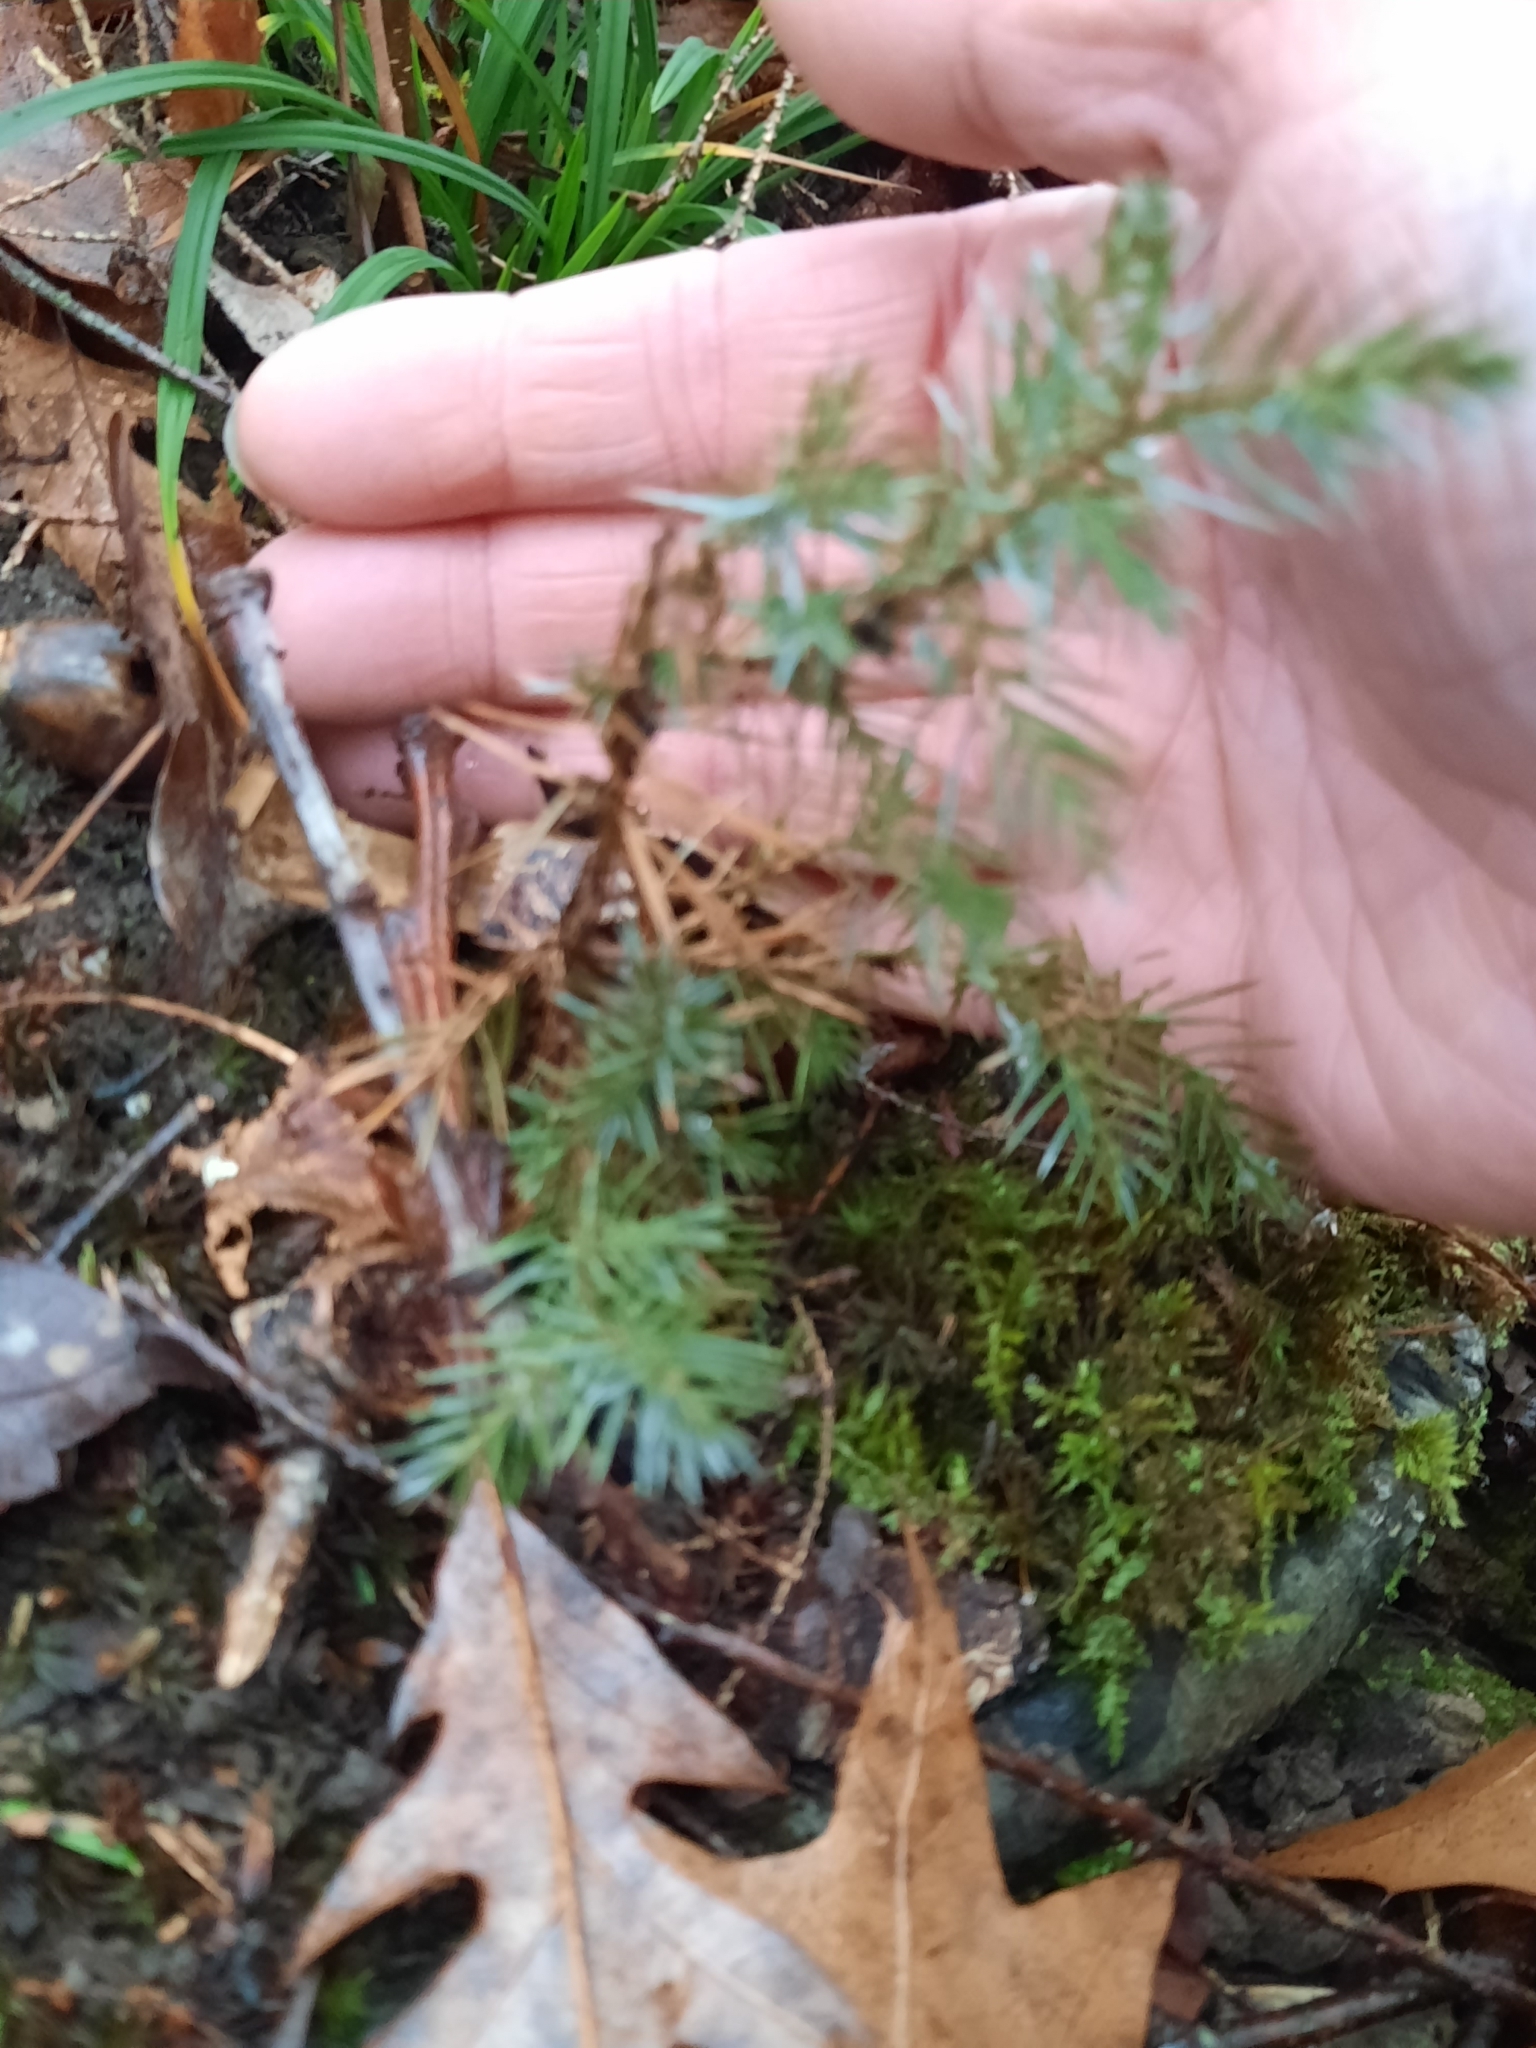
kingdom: Plantae
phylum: Tracheophyta
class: Pinopsida
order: Pinales
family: Cupressaceae
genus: Juniperus
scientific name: Juniperus virginiana
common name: Red juniper
